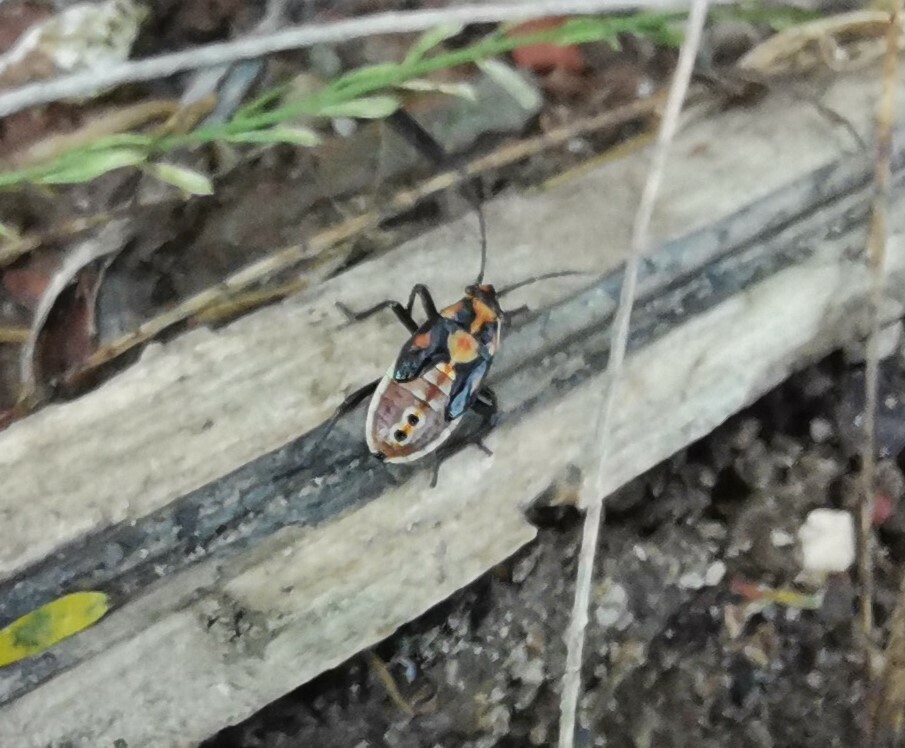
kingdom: Animalia
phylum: Arthropoda
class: Insecta
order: Hemiptera
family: Lygaeidae
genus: Spilostethus
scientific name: Spilostethus pandurus
